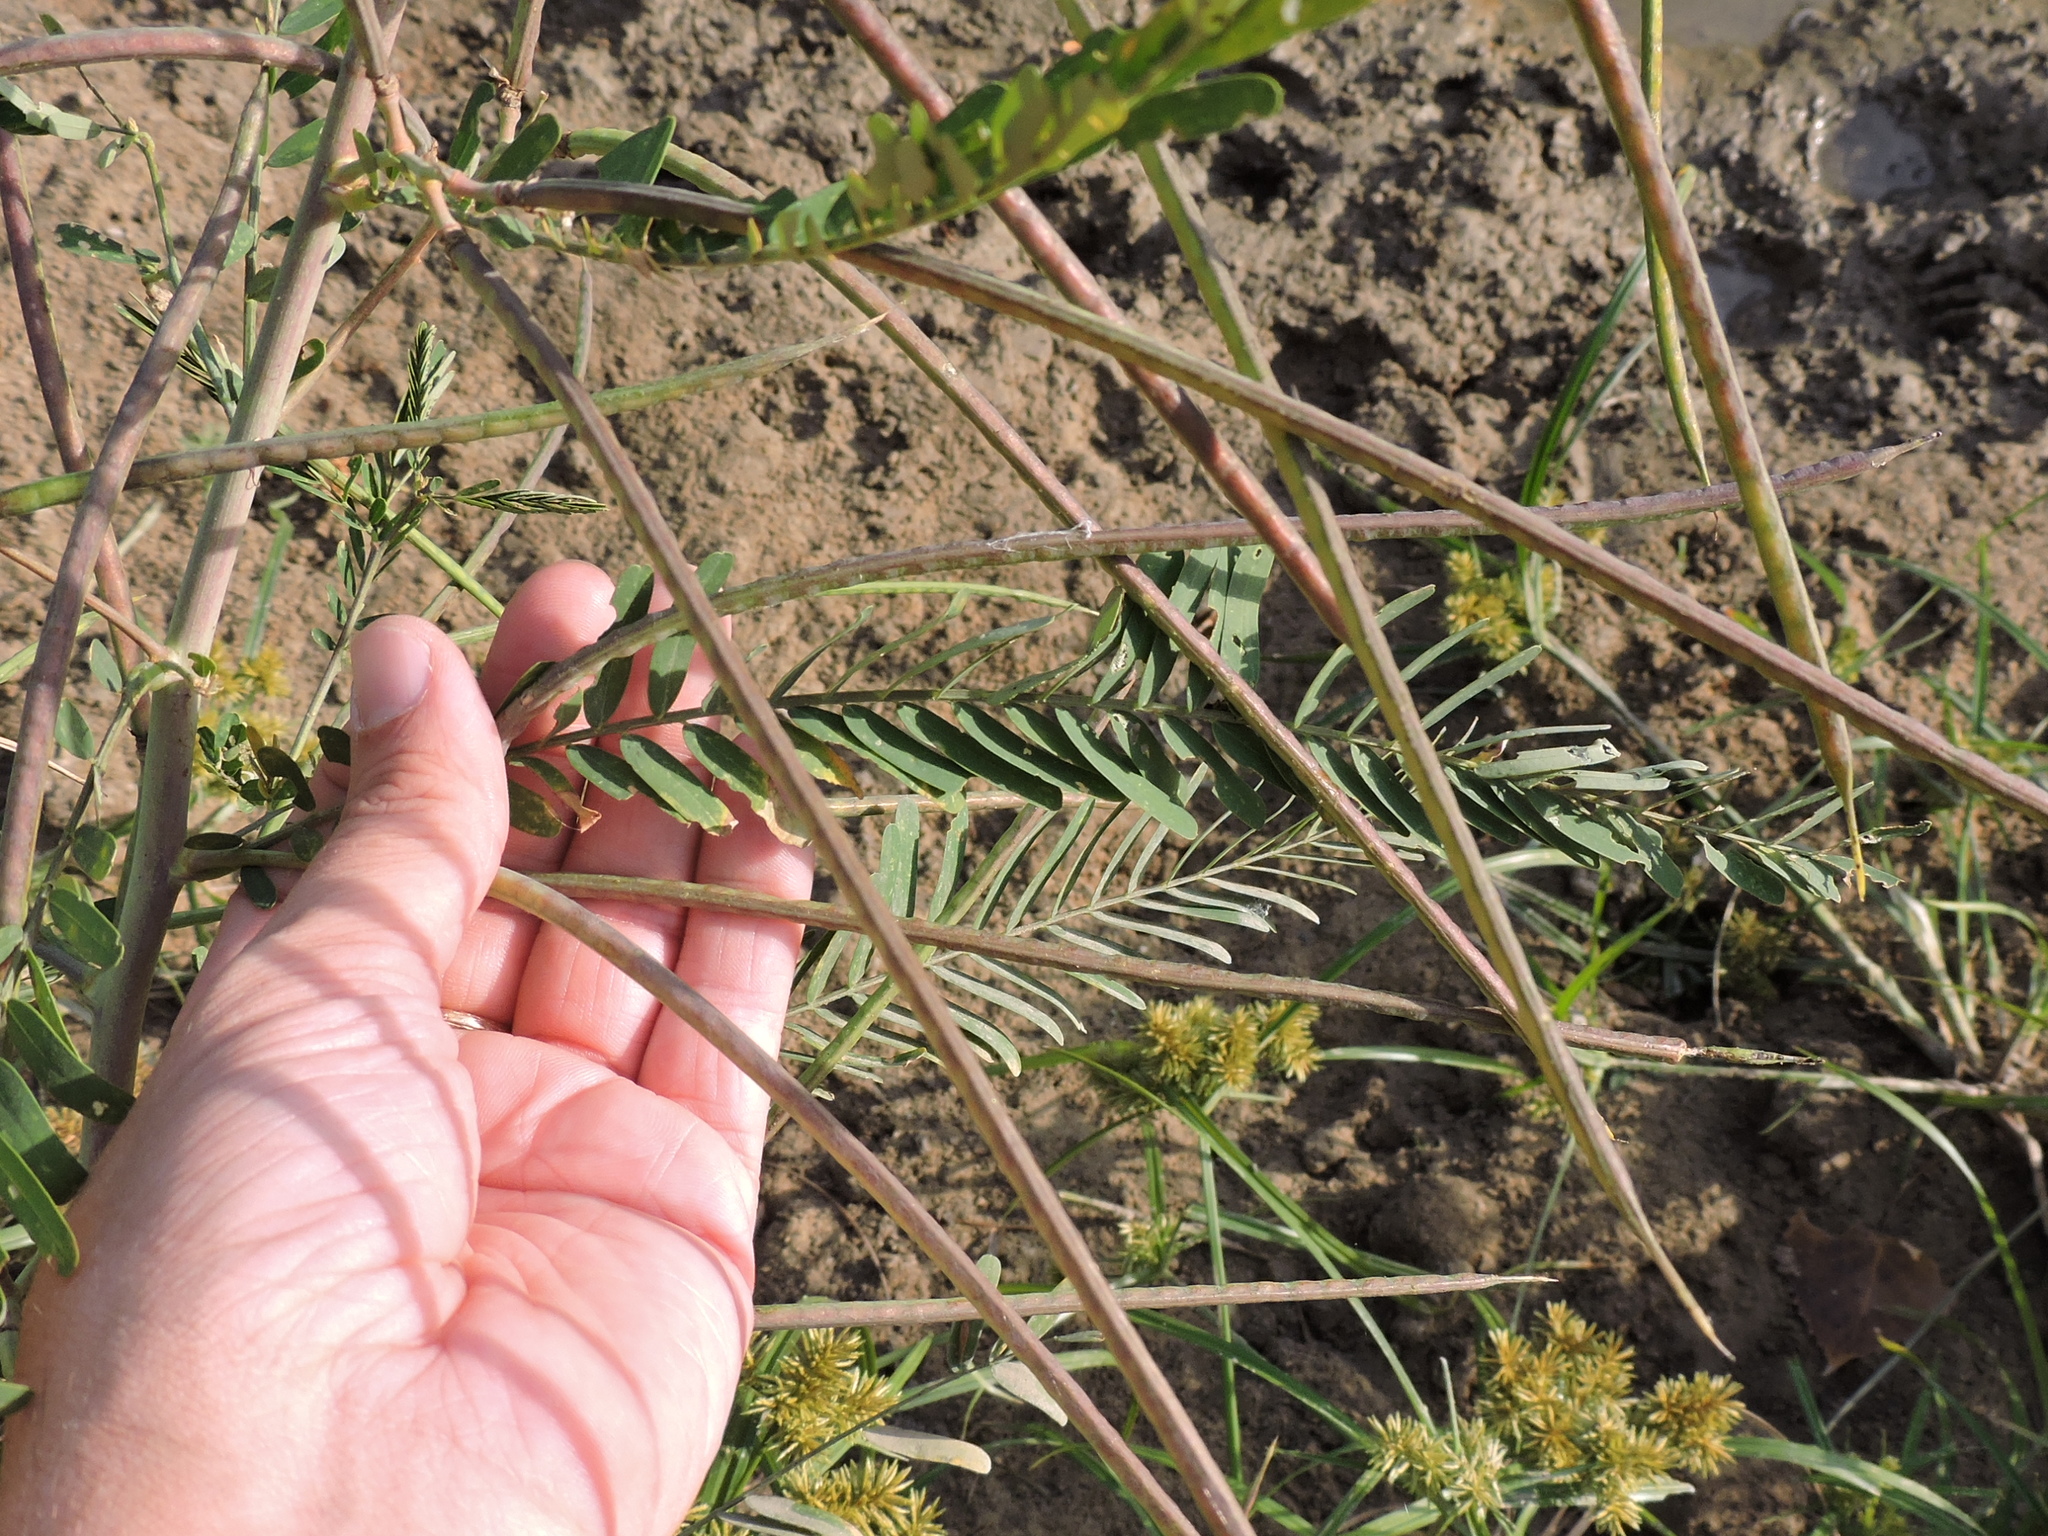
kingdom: Plantae
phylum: Tracheophyta
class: Magnoliopsida
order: Fabales
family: Fabaceae
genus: Sesbania
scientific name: Sesbania herbacea
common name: Bigpod sesbania
